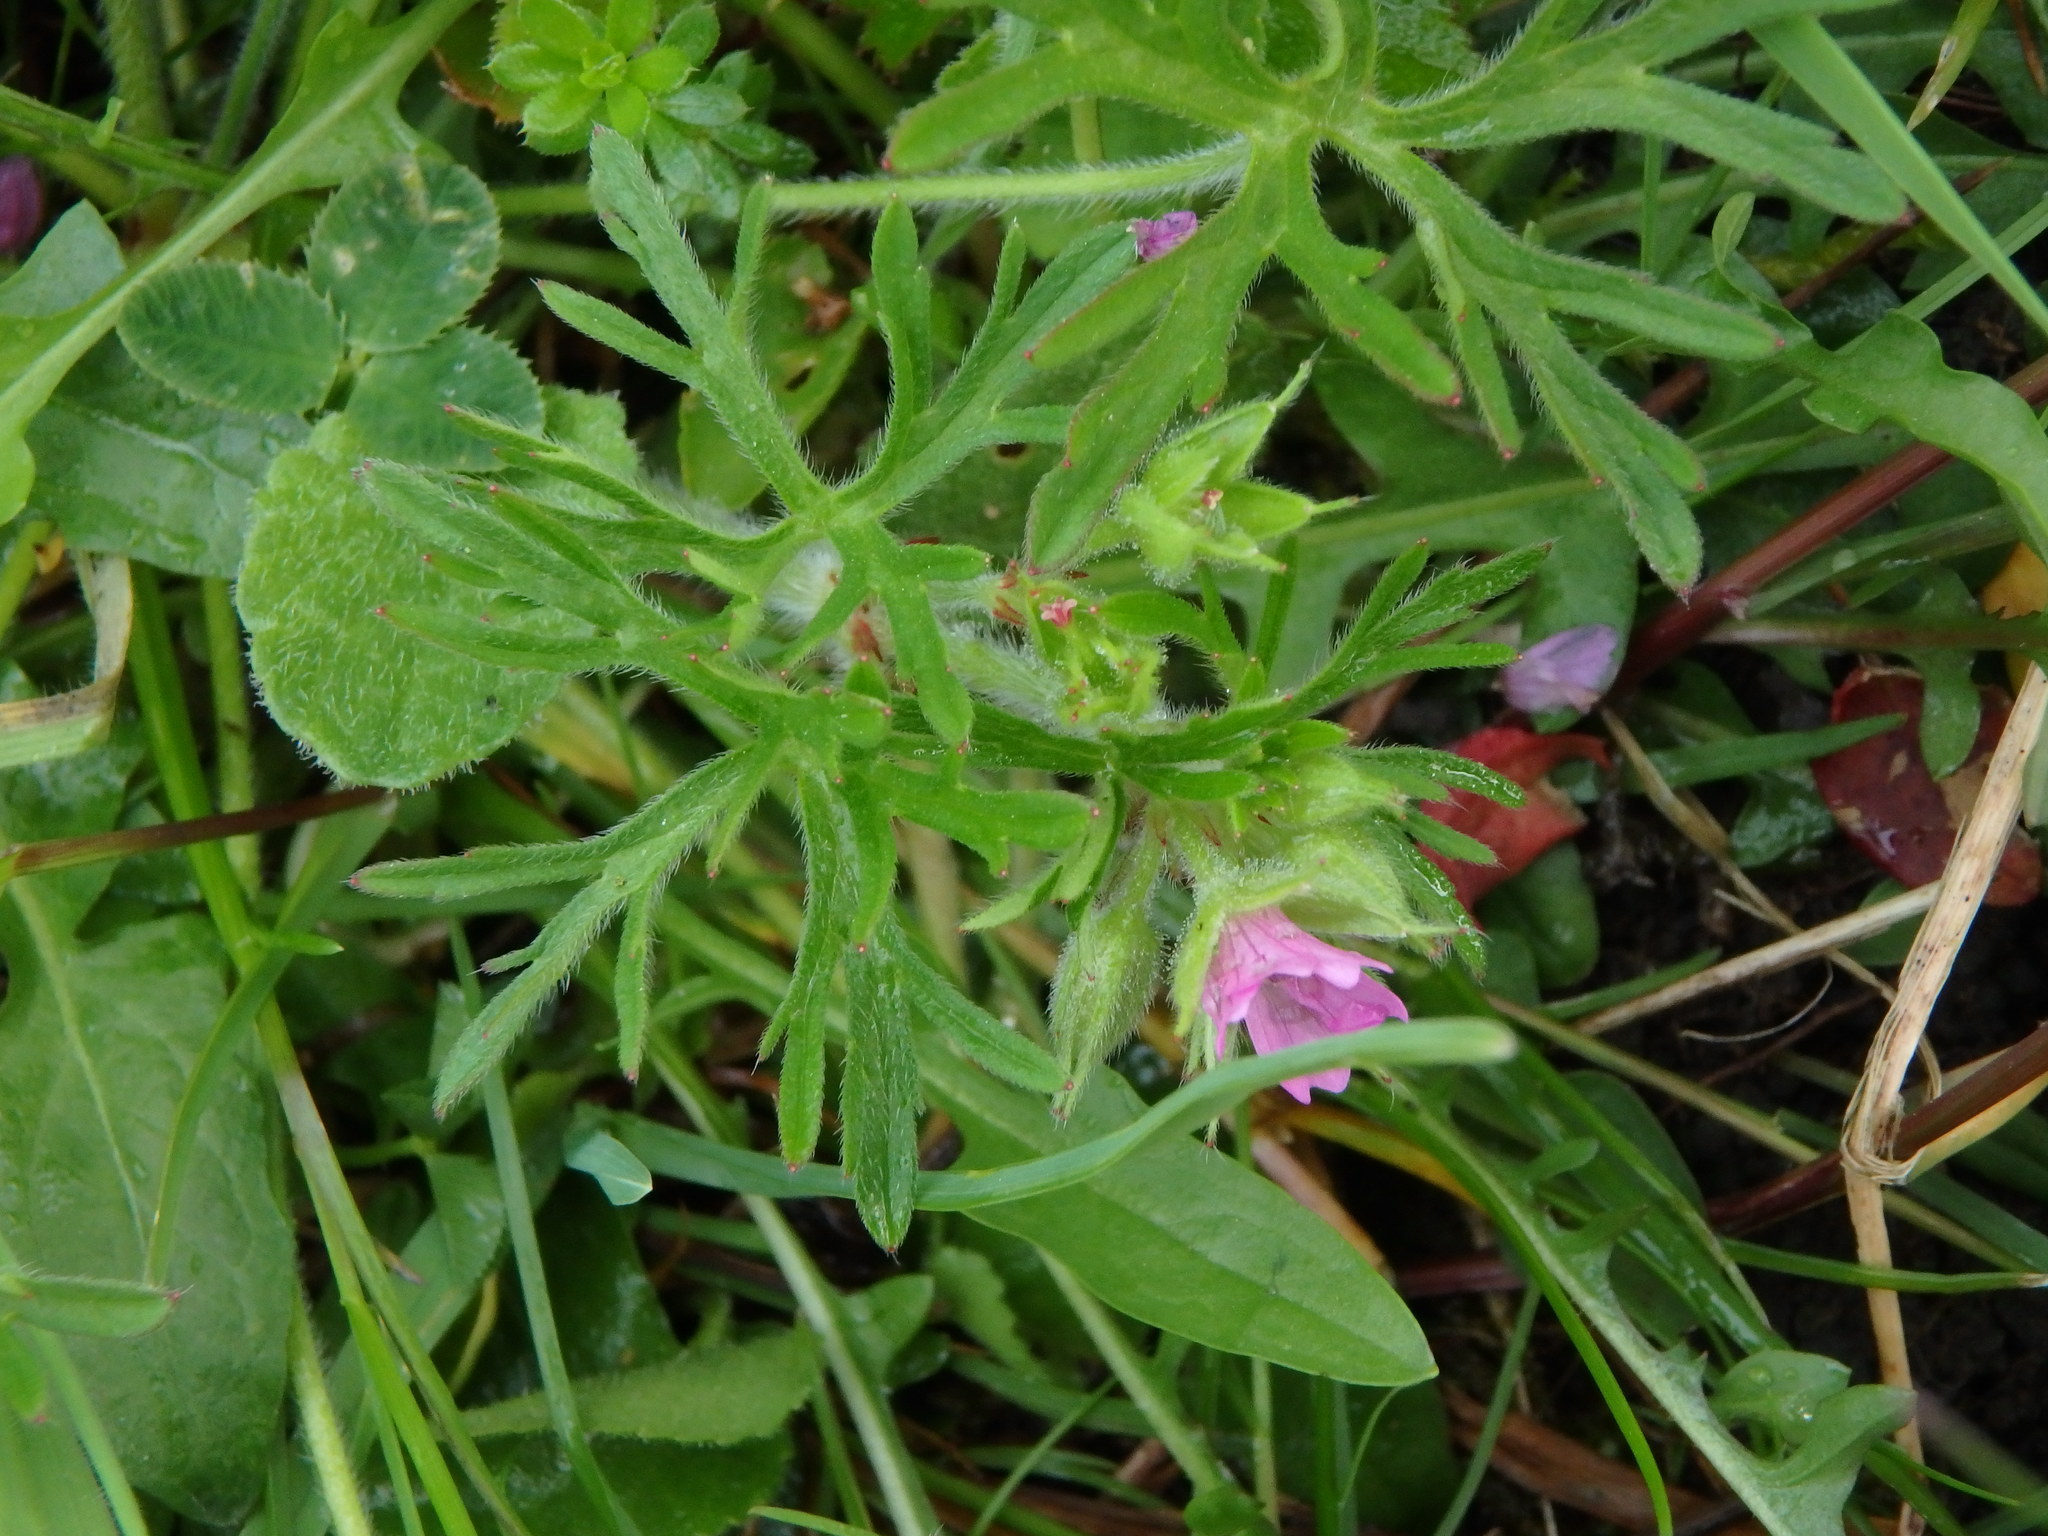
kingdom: Plantae
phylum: Tracheophyta
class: Magnoliopsida
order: Geraniales
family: Geraniaceae
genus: Geranium
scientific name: Geranium dissectum
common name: Cut-leaved crane's-bill
